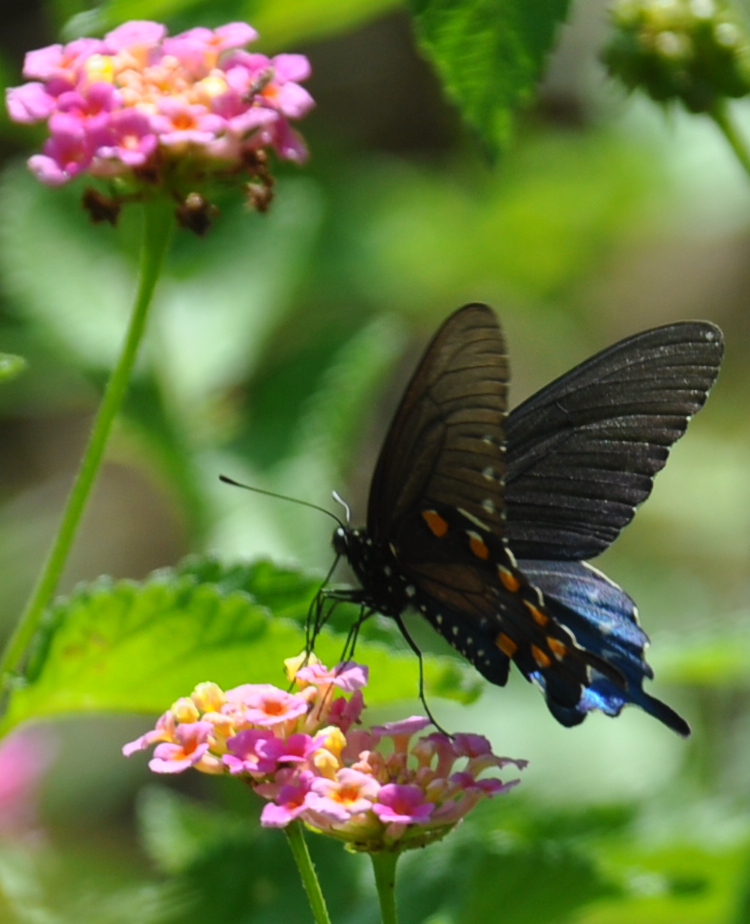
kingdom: Animalia
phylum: Arthropoda
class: Insecta
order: Lepidoptera
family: Papilionidae
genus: Battus
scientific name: Battus philenor
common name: Pipevine swallowtail
